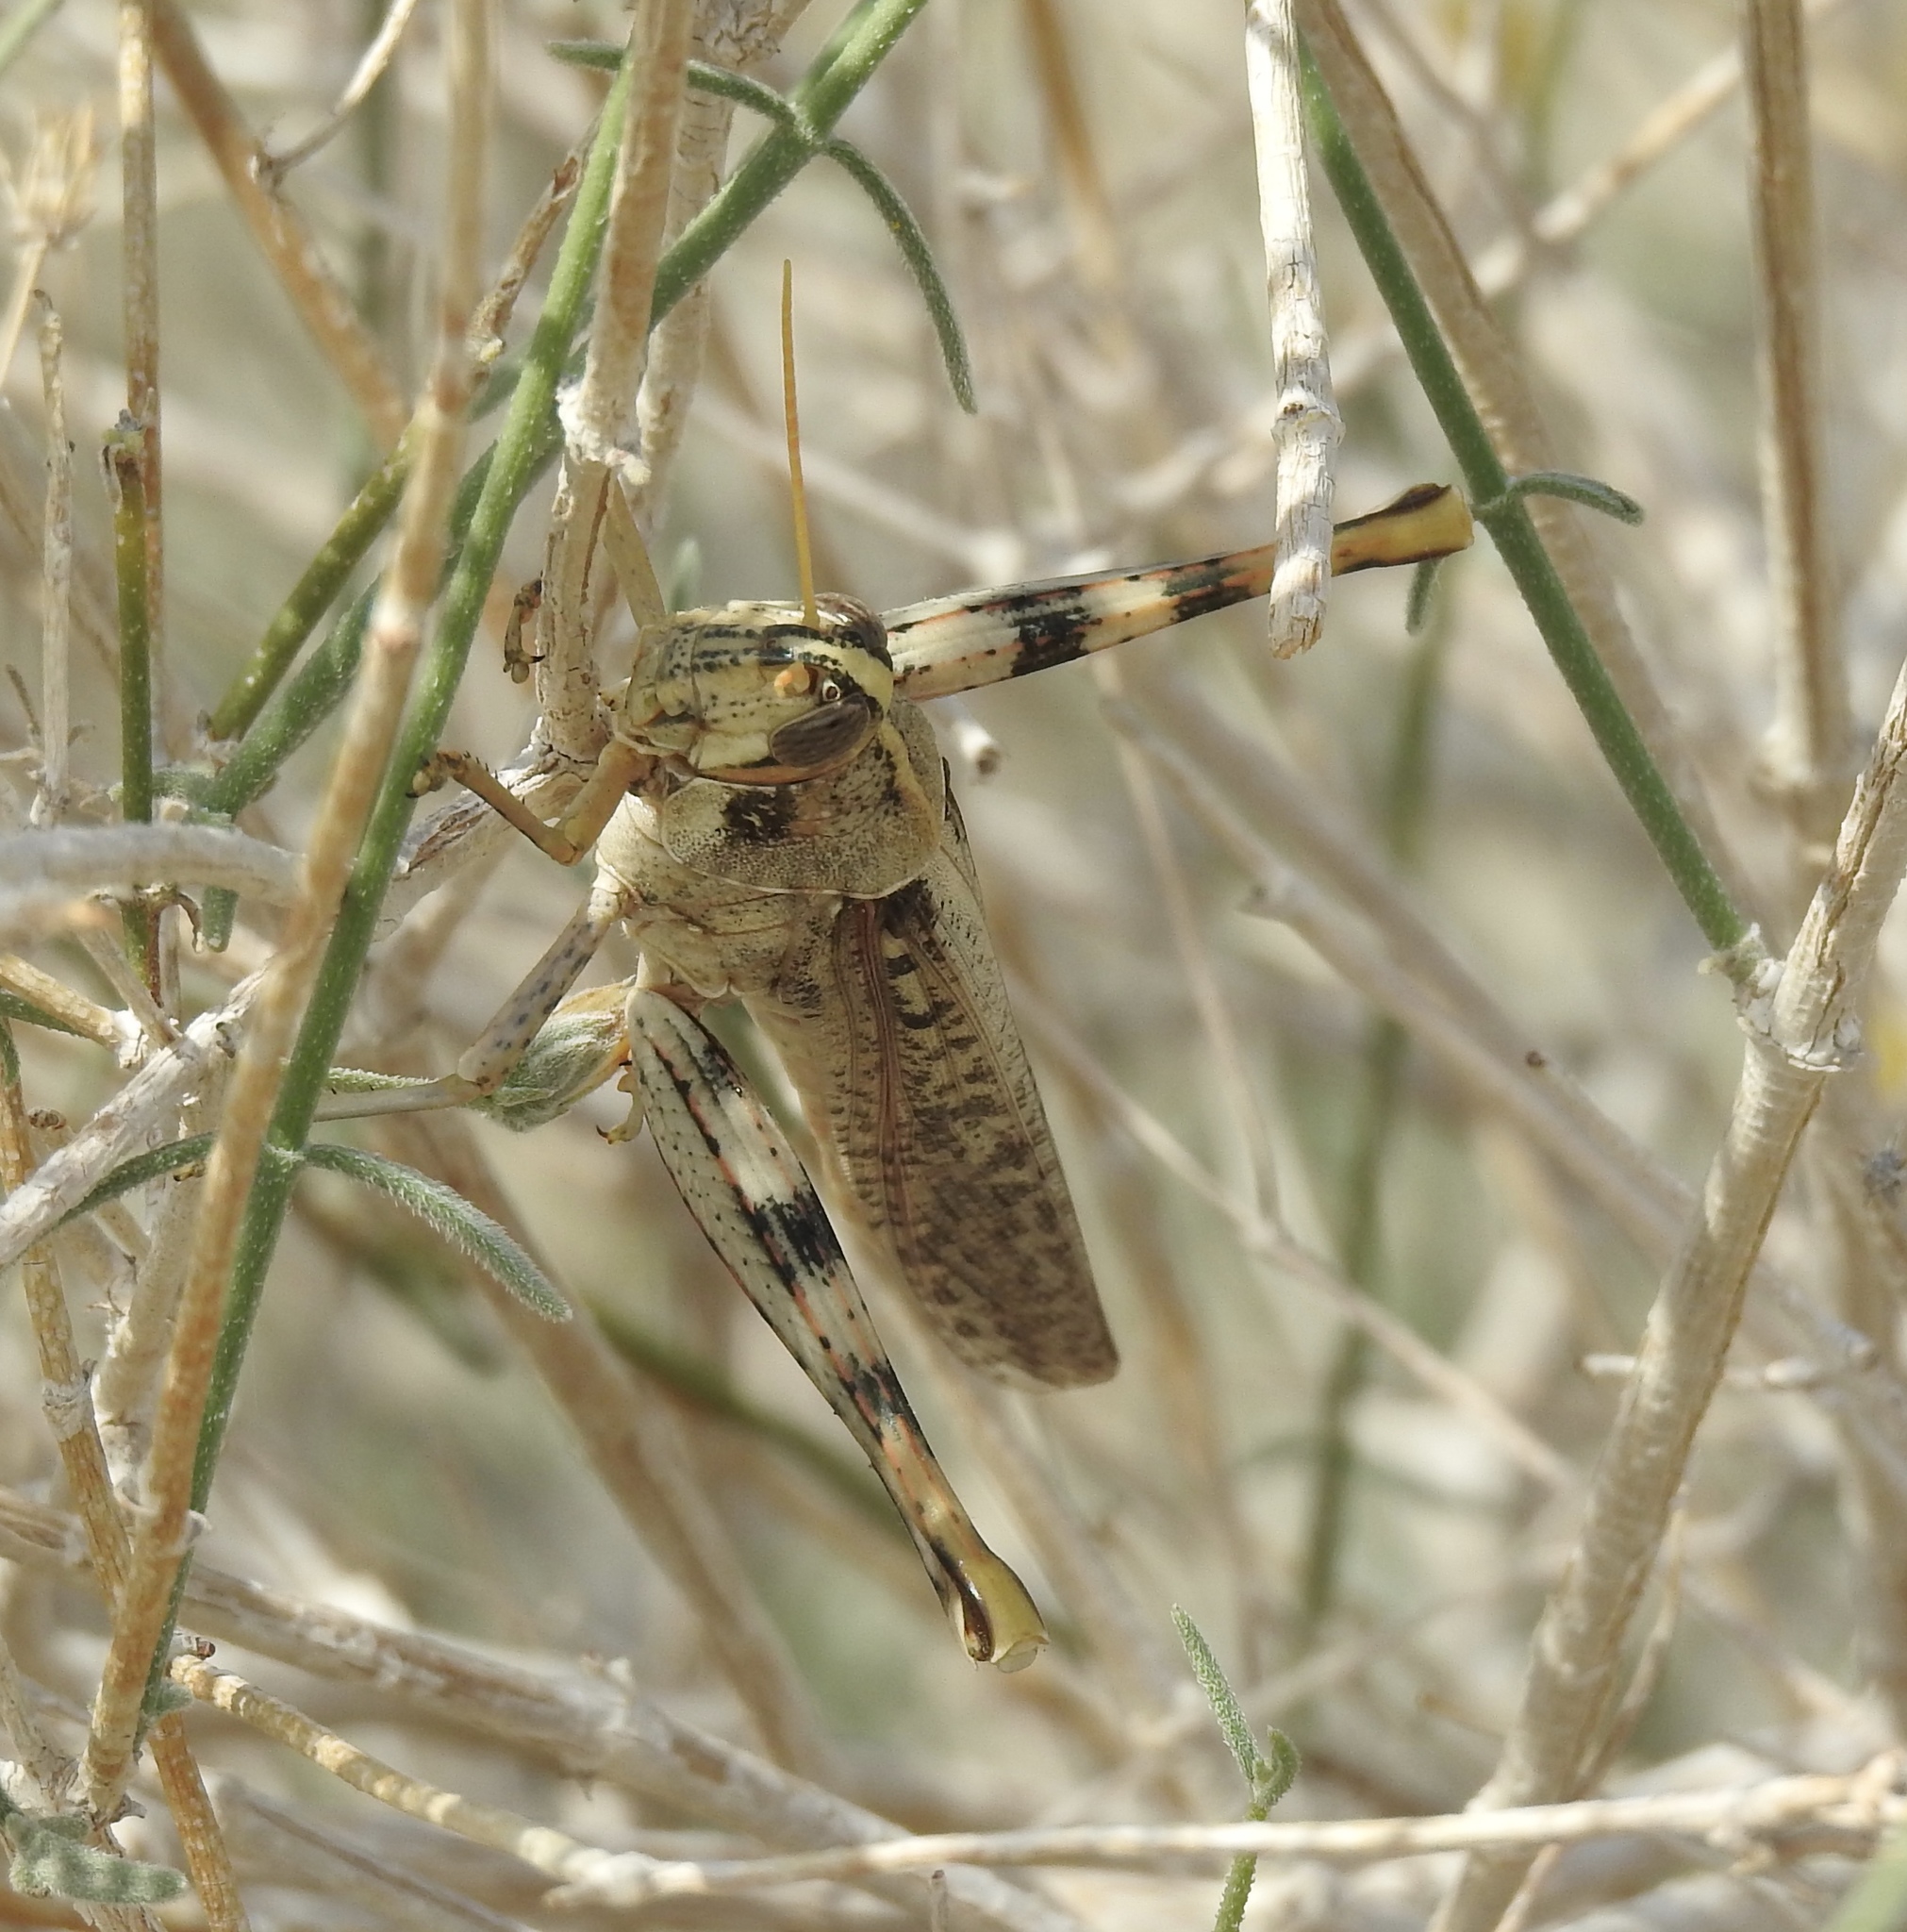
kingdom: Animalia
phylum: Arthropoda
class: Insecta
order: Orthoptera
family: Acrididae
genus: Schistocerca
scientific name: Schistocerca nitens
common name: Vagrant grasshopper
